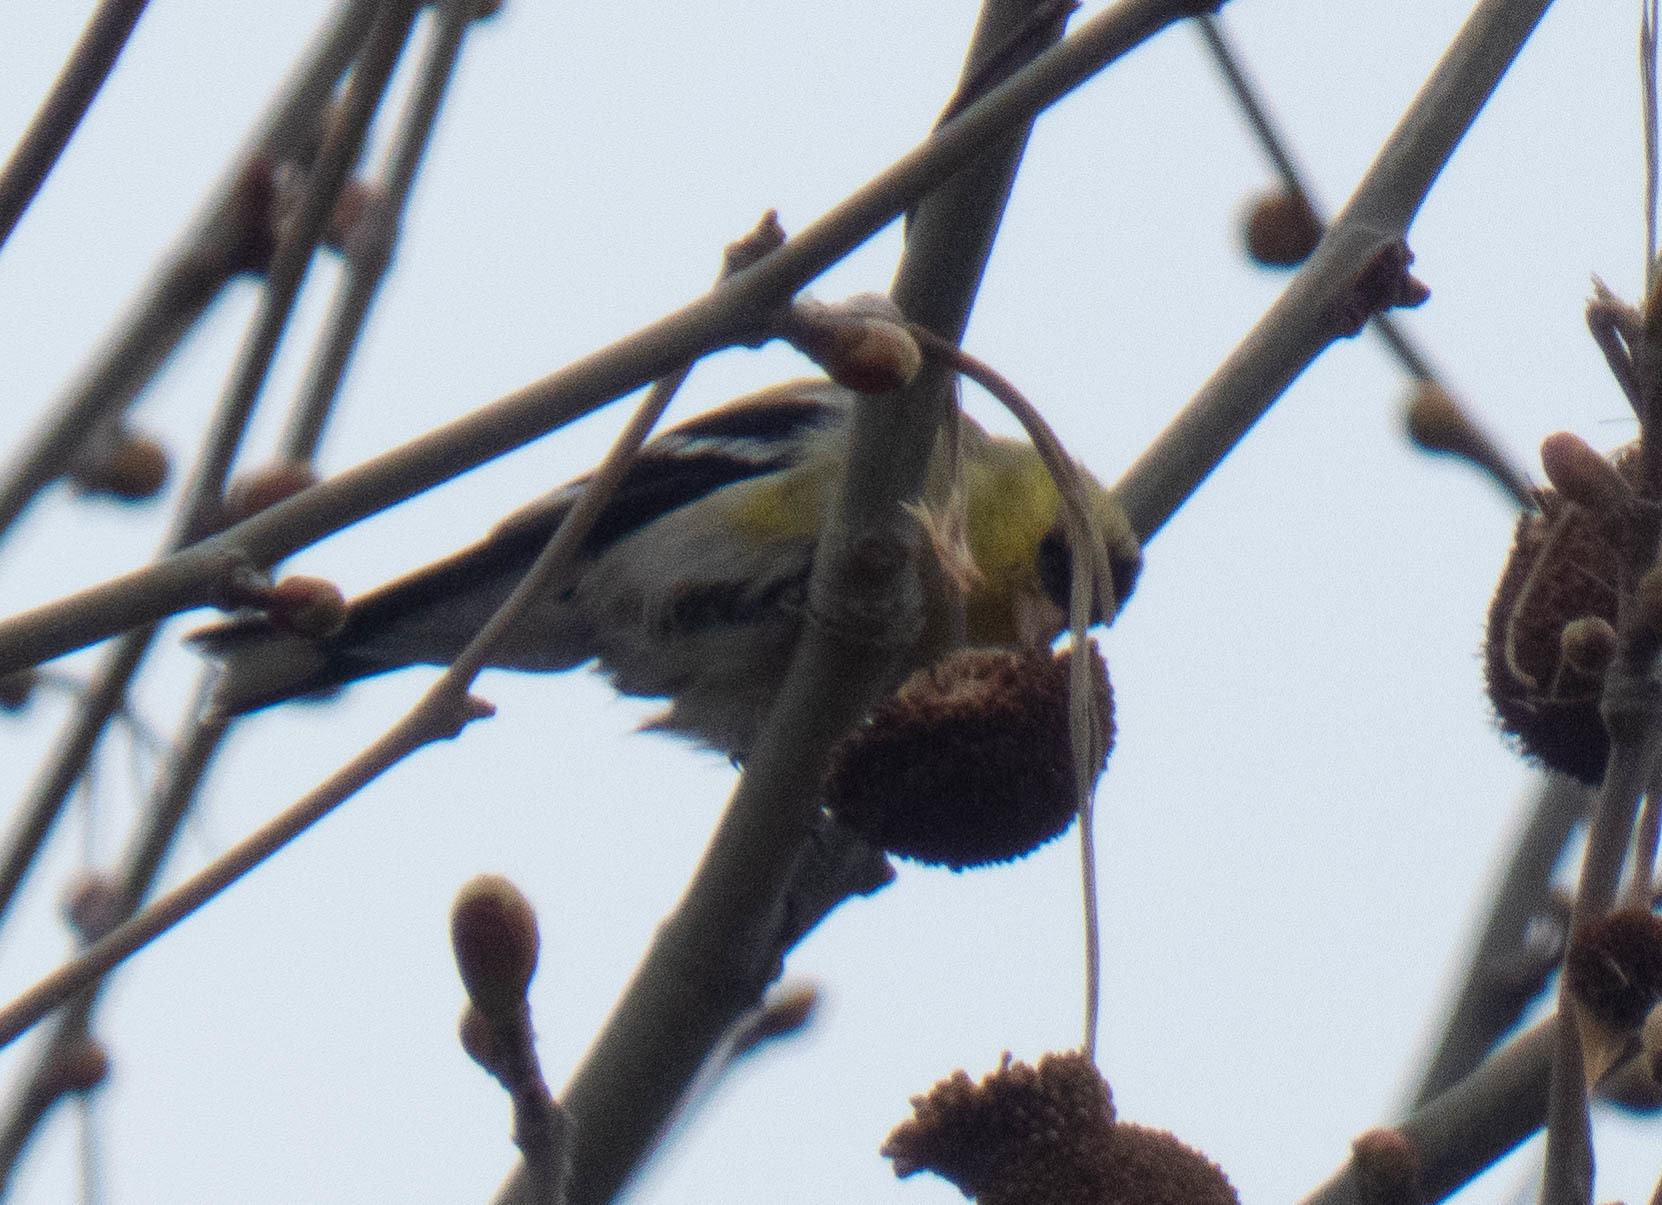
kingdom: Animalia
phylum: Chordata
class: Aves
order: Passeriformes
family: Fringillidae
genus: Spinus
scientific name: Spinus tristis
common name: American goldfinch
